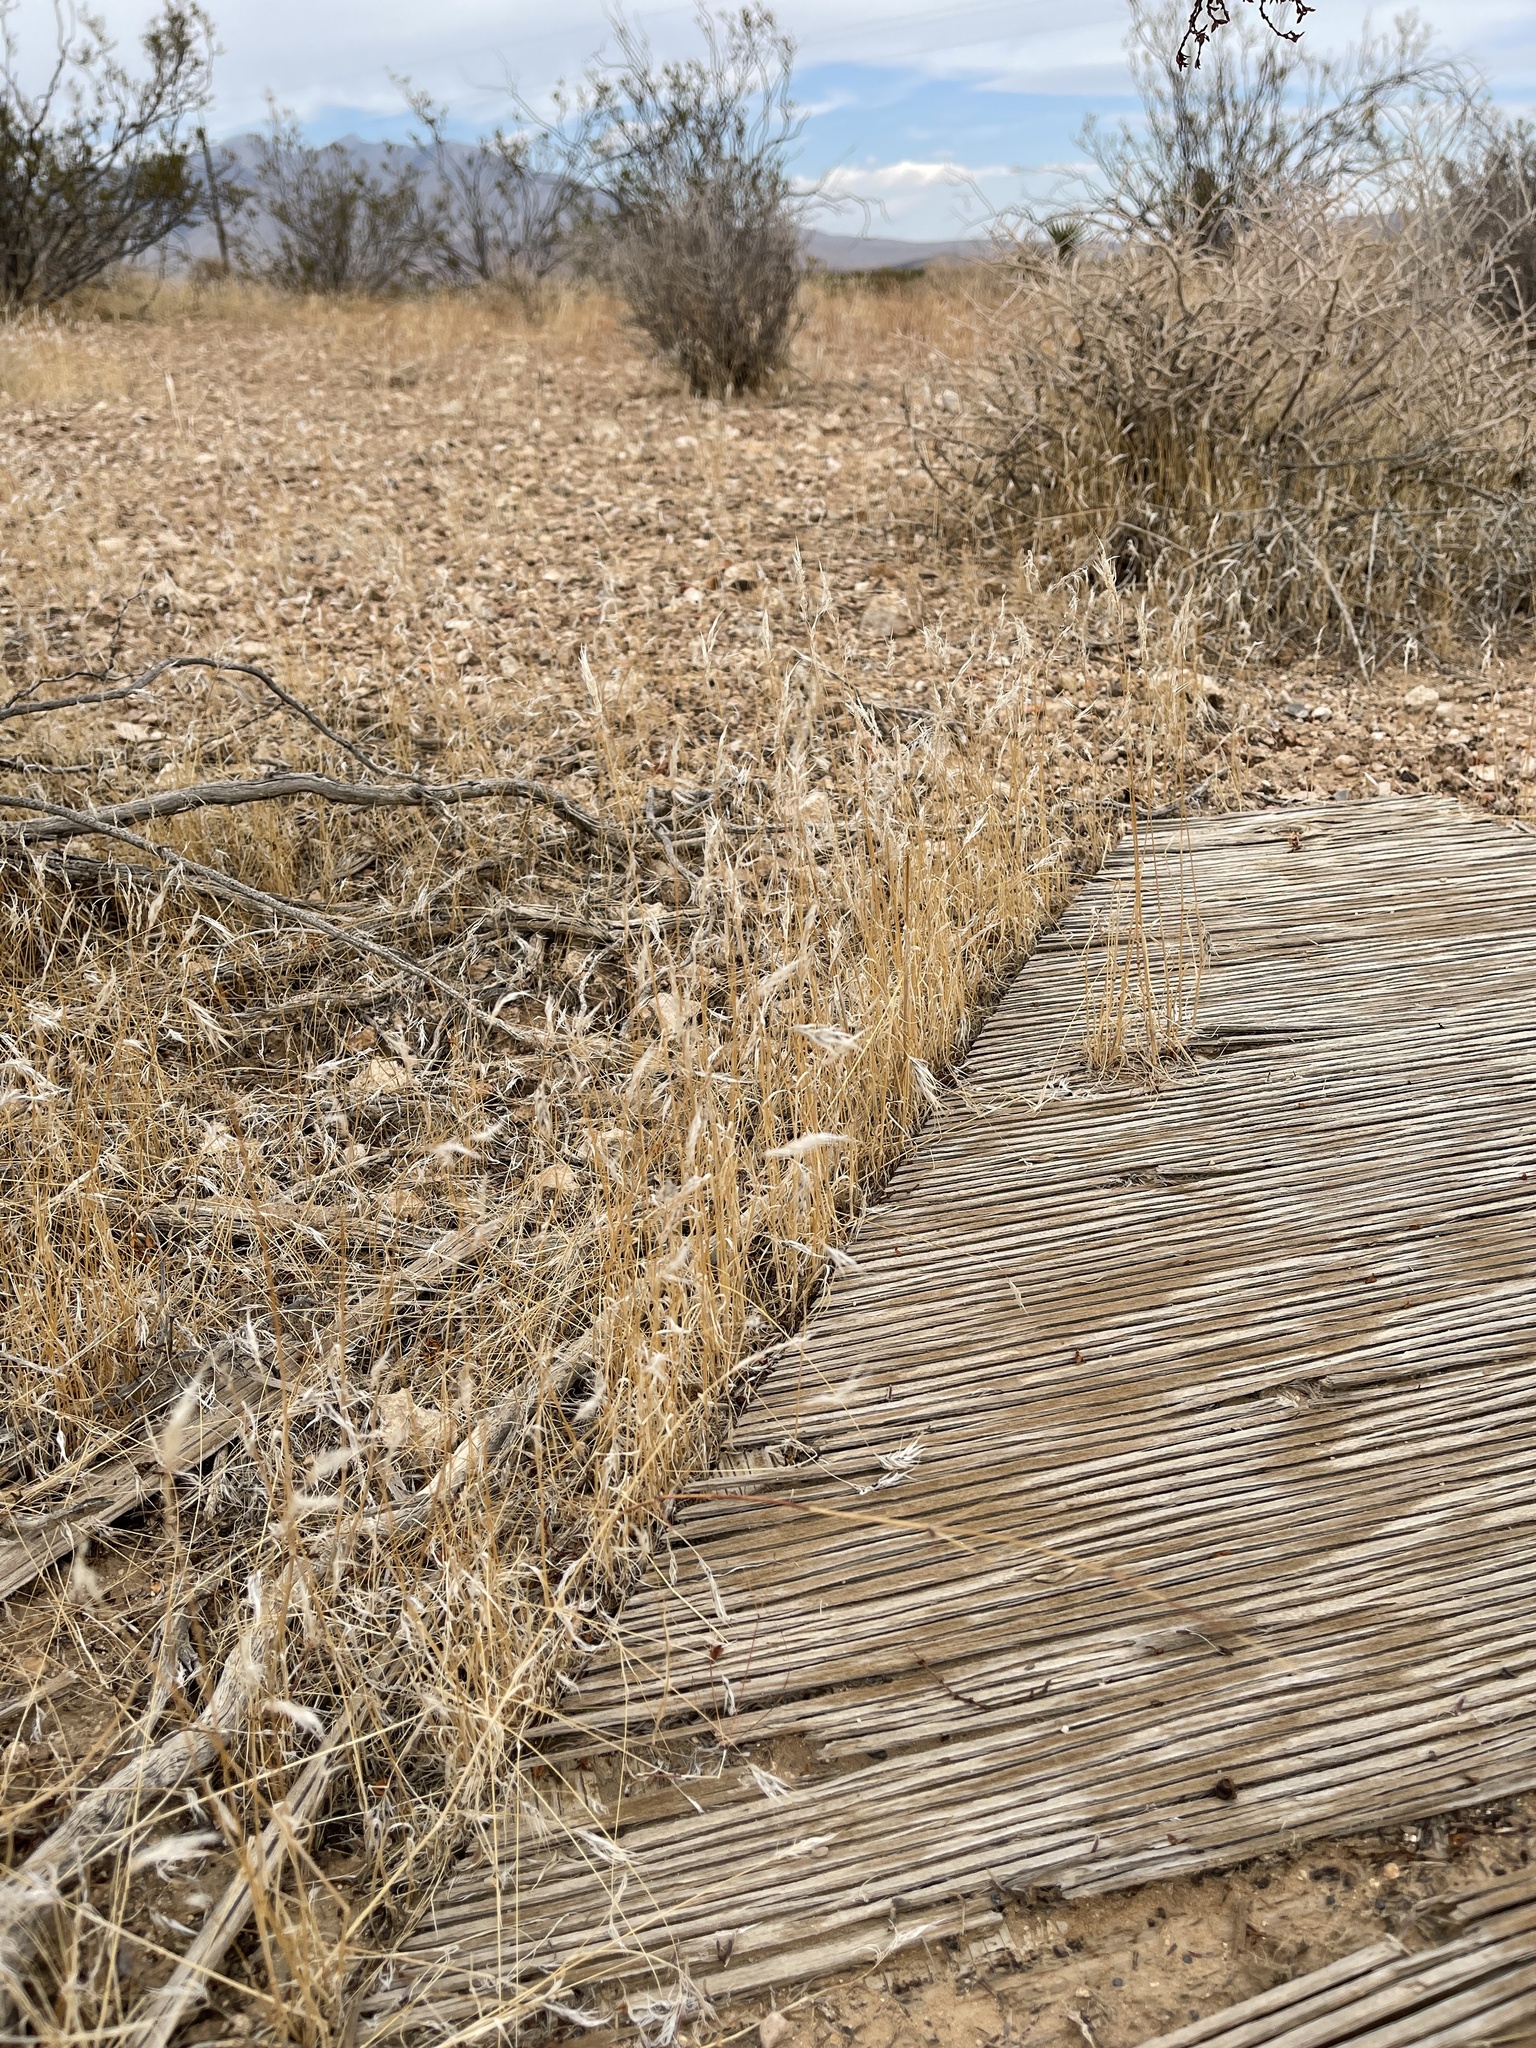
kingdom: Plantae
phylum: Tracheophyta
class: Liliopsida
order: Poales
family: Poaceae
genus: Bromus
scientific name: Bromus rubens
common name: Red brome
